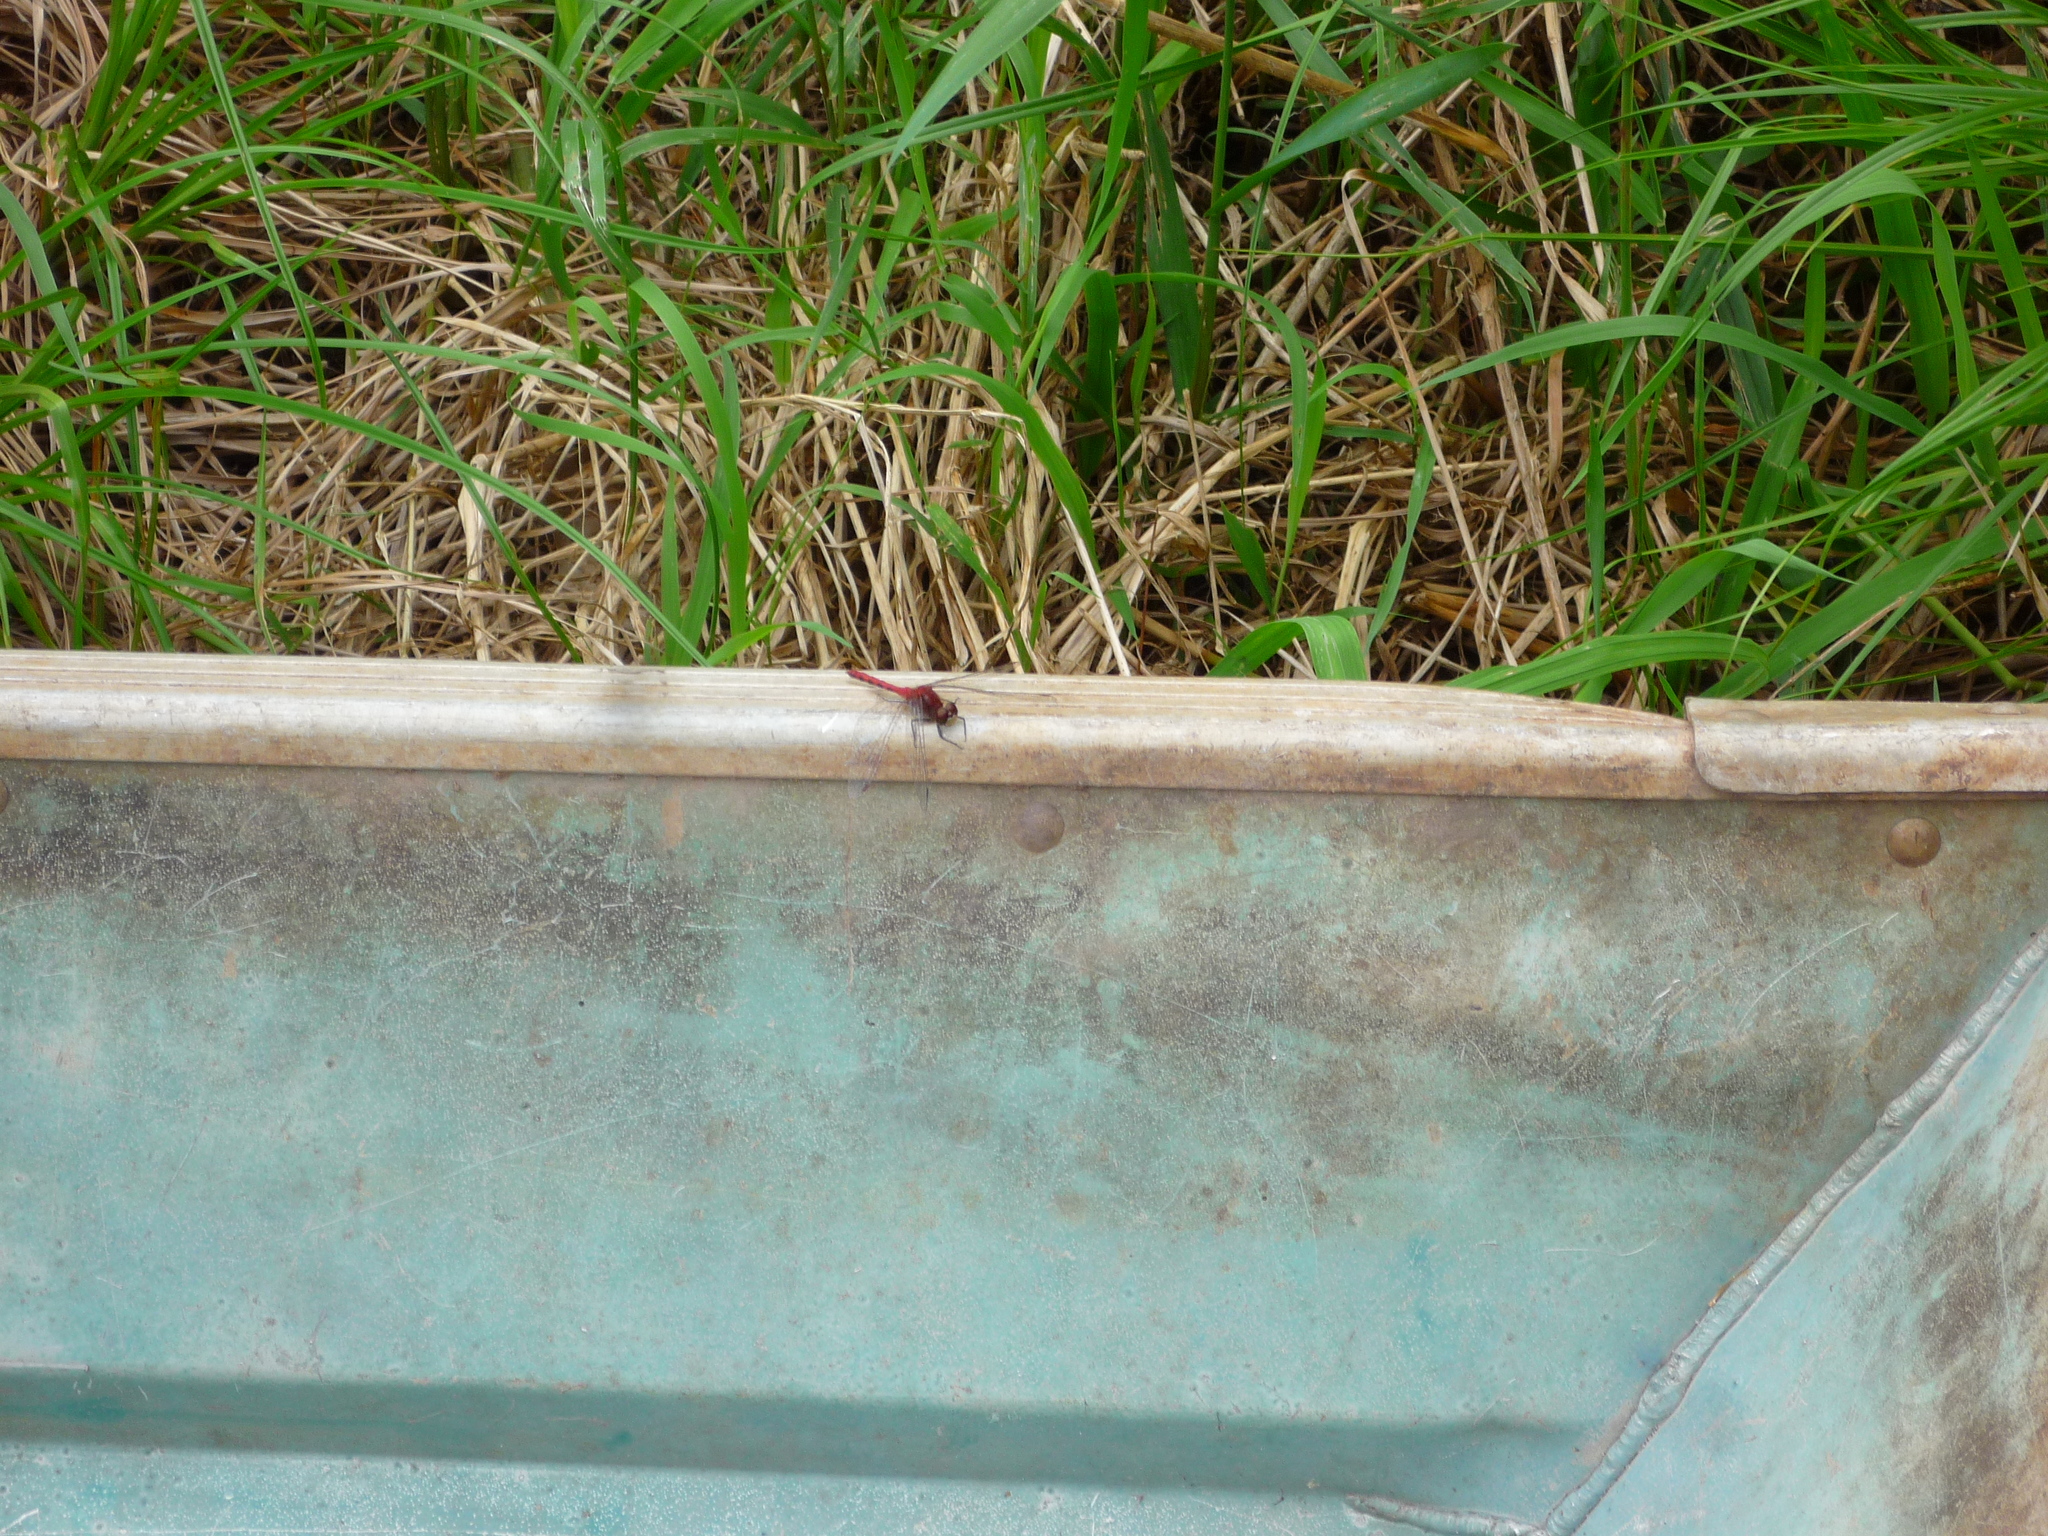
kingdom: Animalia
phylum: Arthropoda
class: Insecta
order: Odonata
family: Libellulidae
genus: Sympetrum
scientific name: Sympetrum
